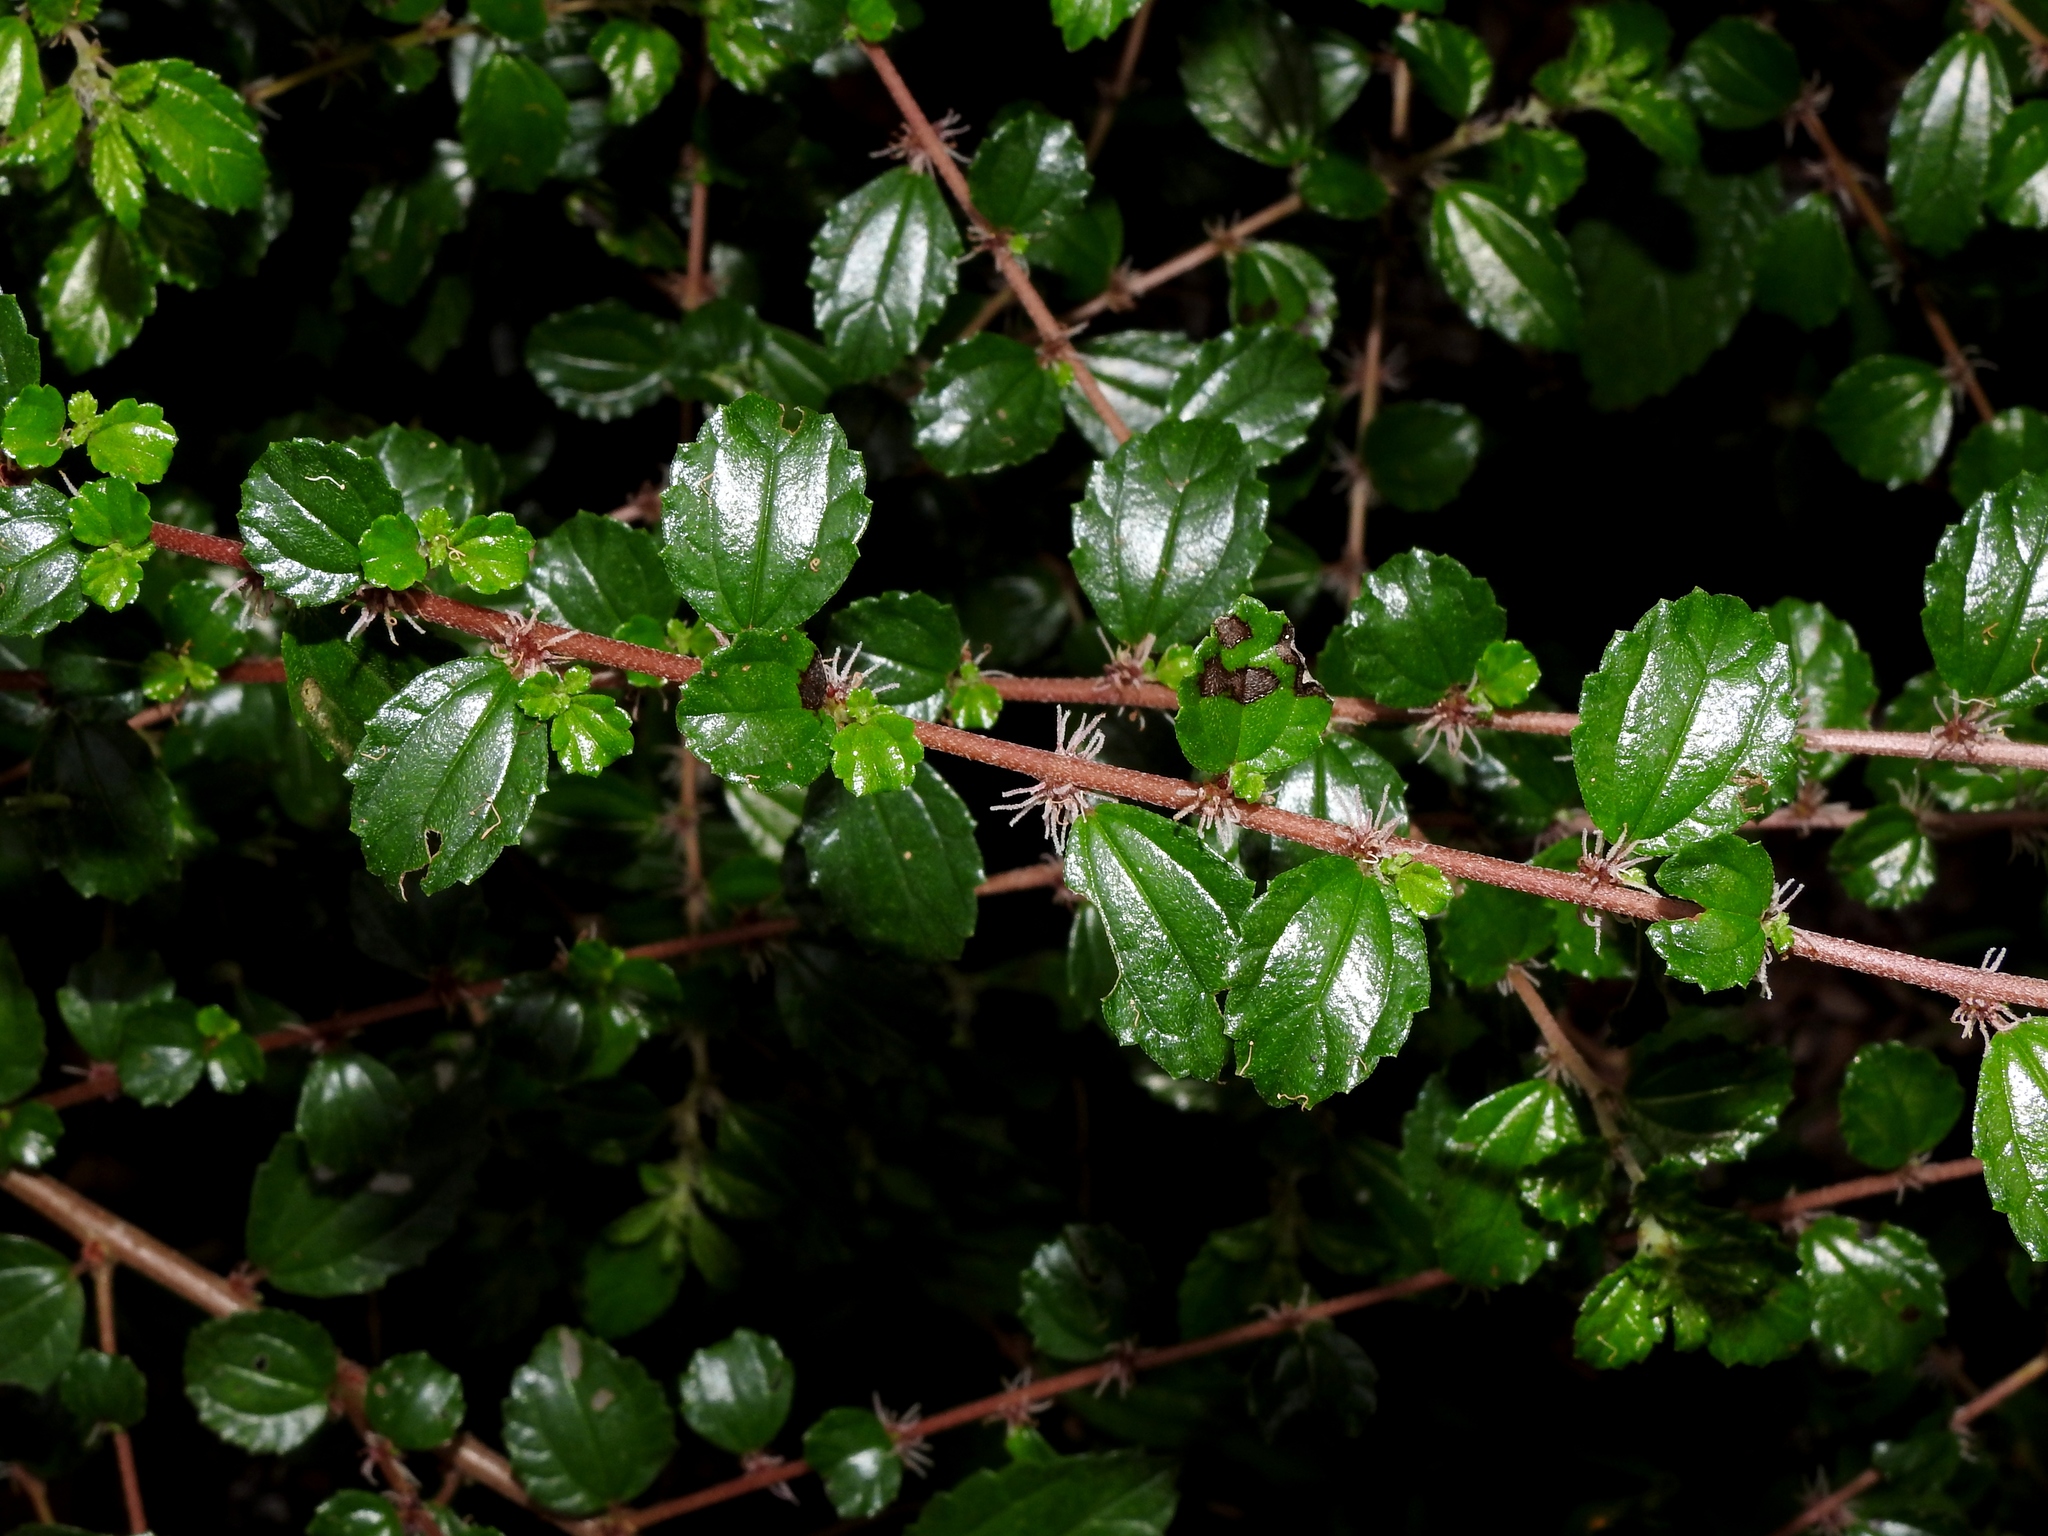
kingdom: Plantae
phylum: Tracheophyta
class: Magnoliopsida
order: Rosales
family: Urticaceae
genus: Pouzolzia
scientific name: Pouzolzia sanguinea
